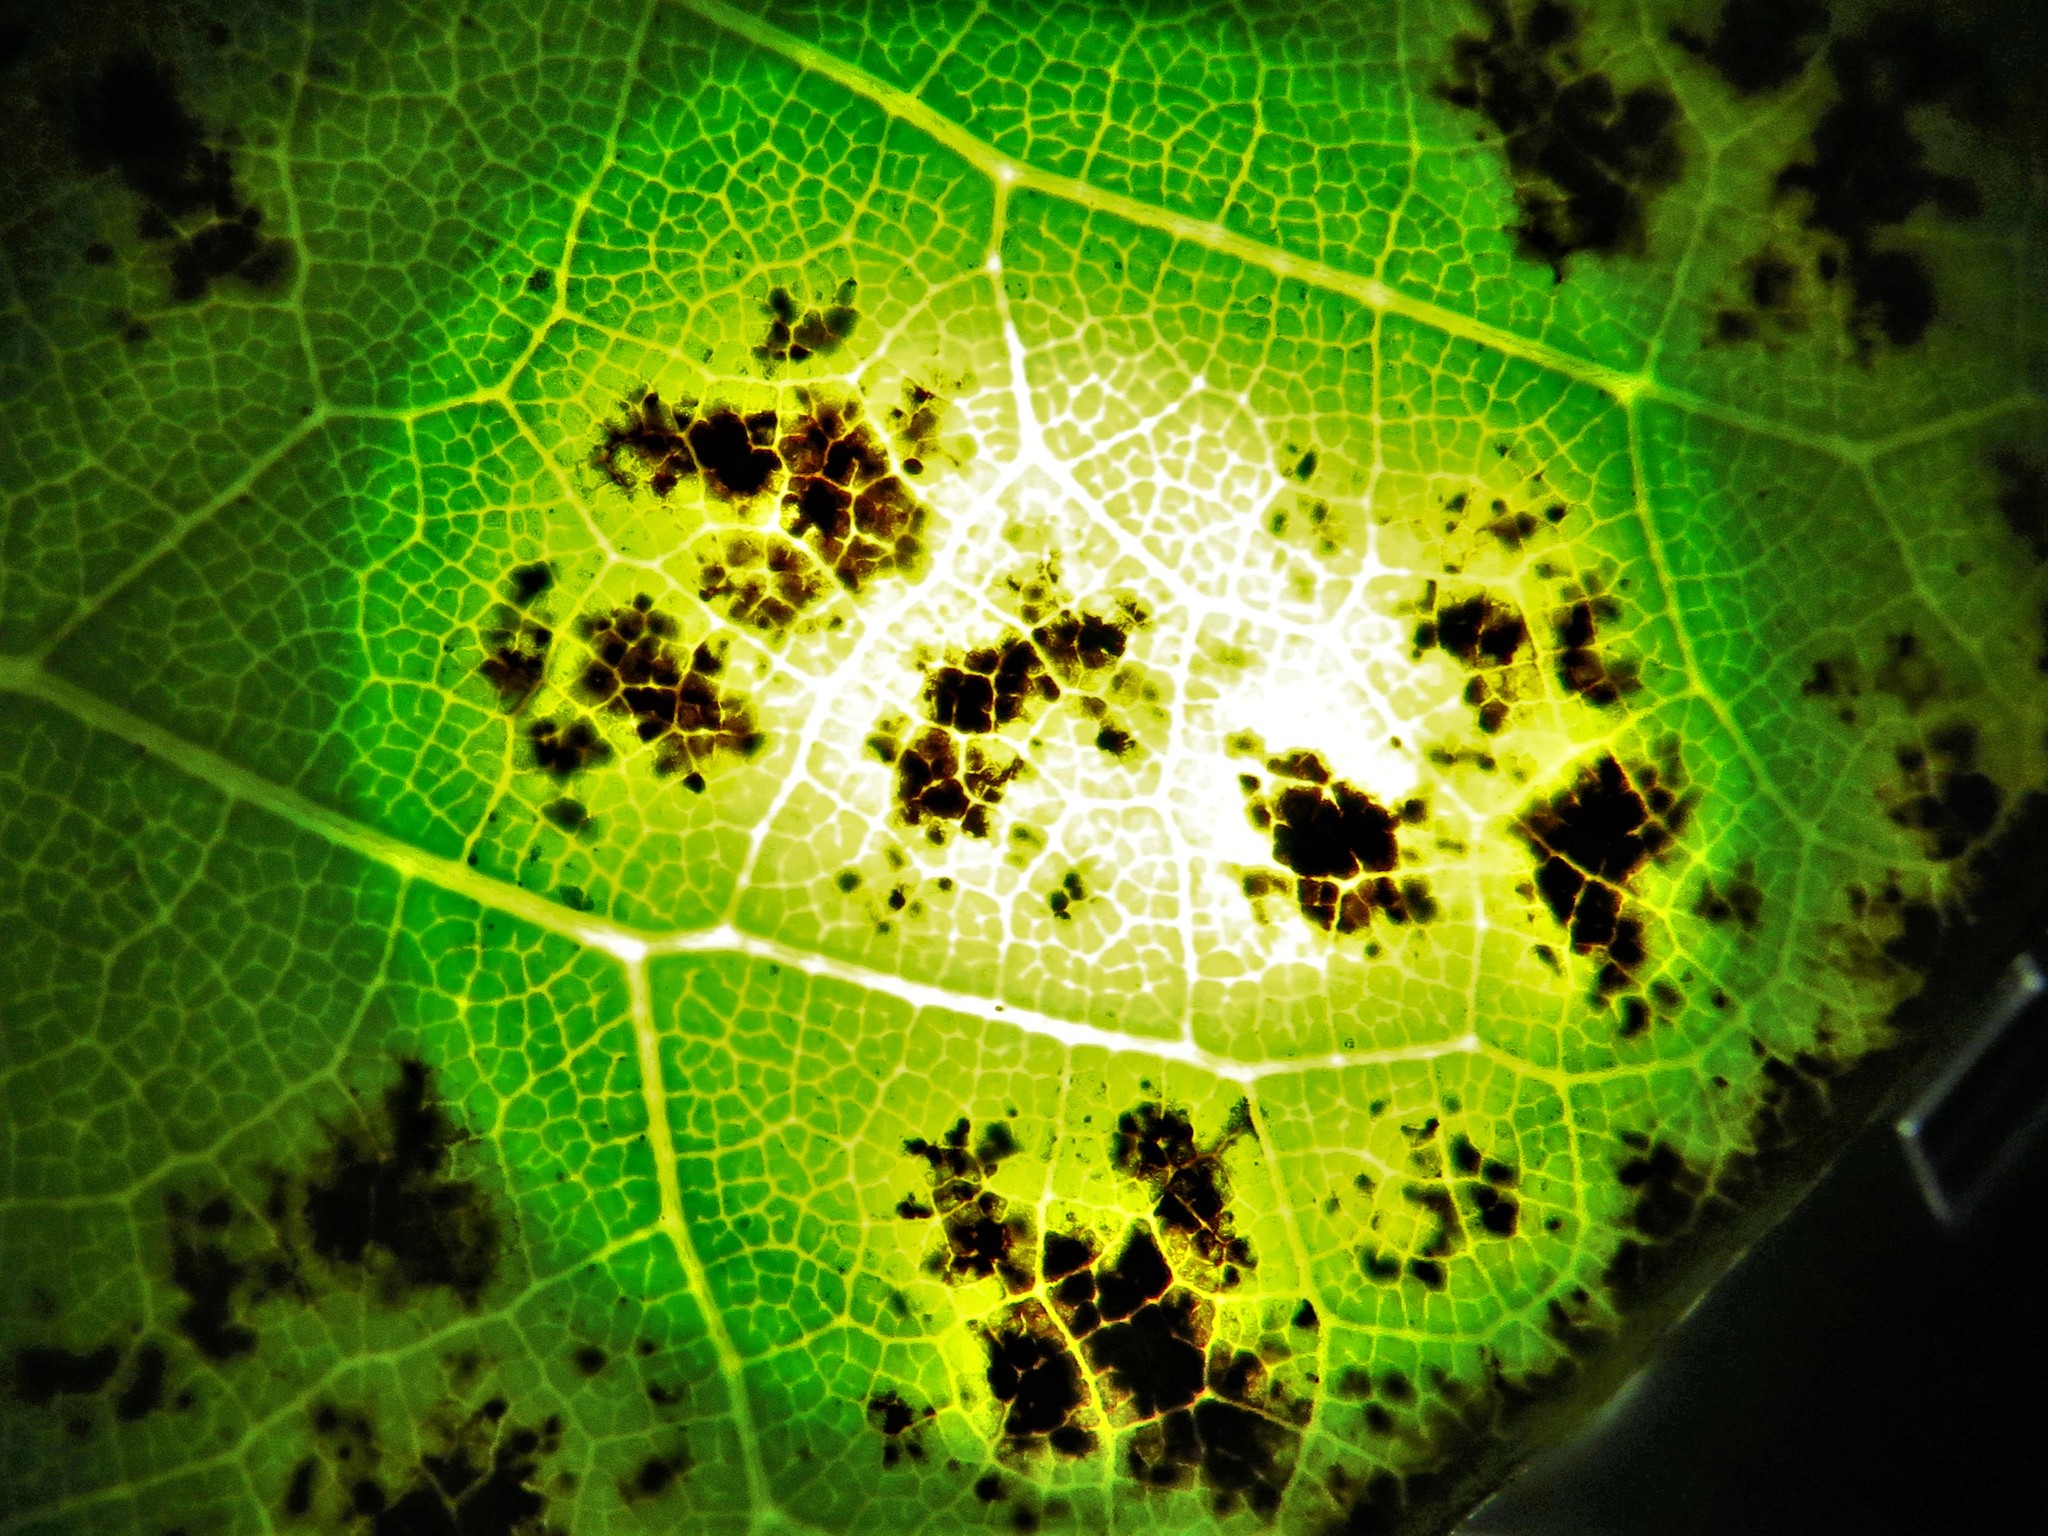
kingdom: Fungi
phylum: Ascomycota
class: Dothideomycetes
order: Mycosphaerellales
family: Mycosphaerellaceae
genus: Passalora
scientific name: Passalora chionea
